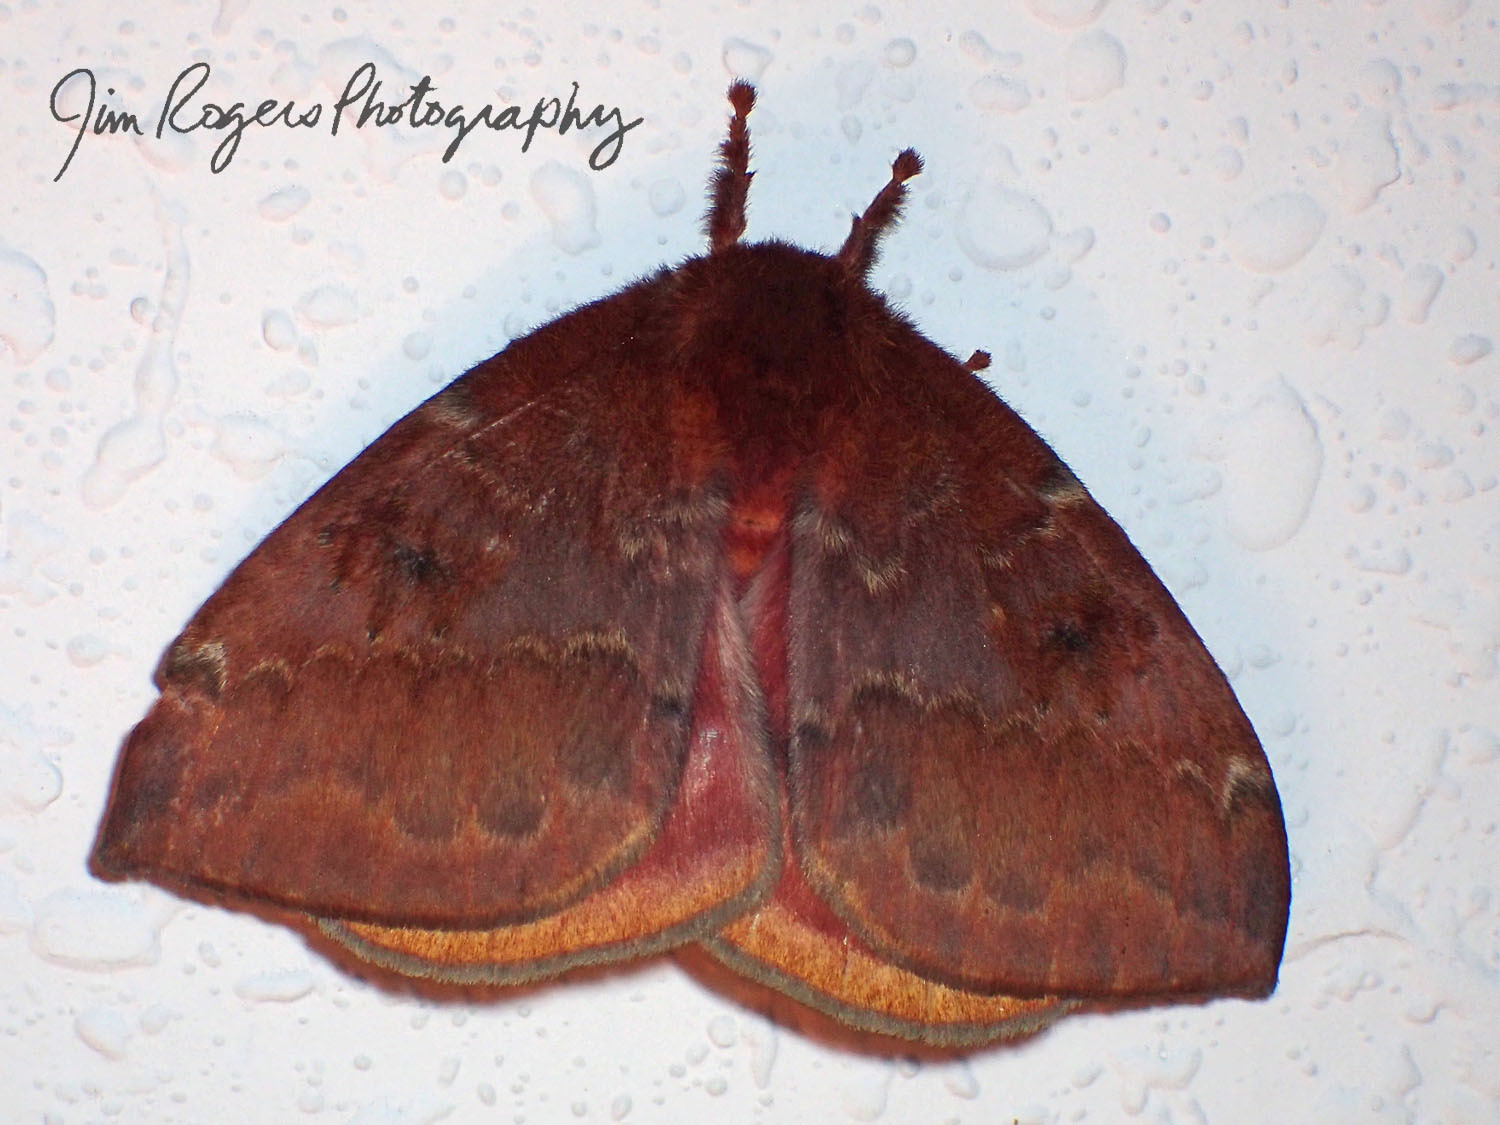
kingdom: Animalia
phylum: Arthropoda
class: Insecta
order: Lepidoptera
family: Saturniidae
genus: Automeris
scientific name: Automeris io
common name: Io moth
